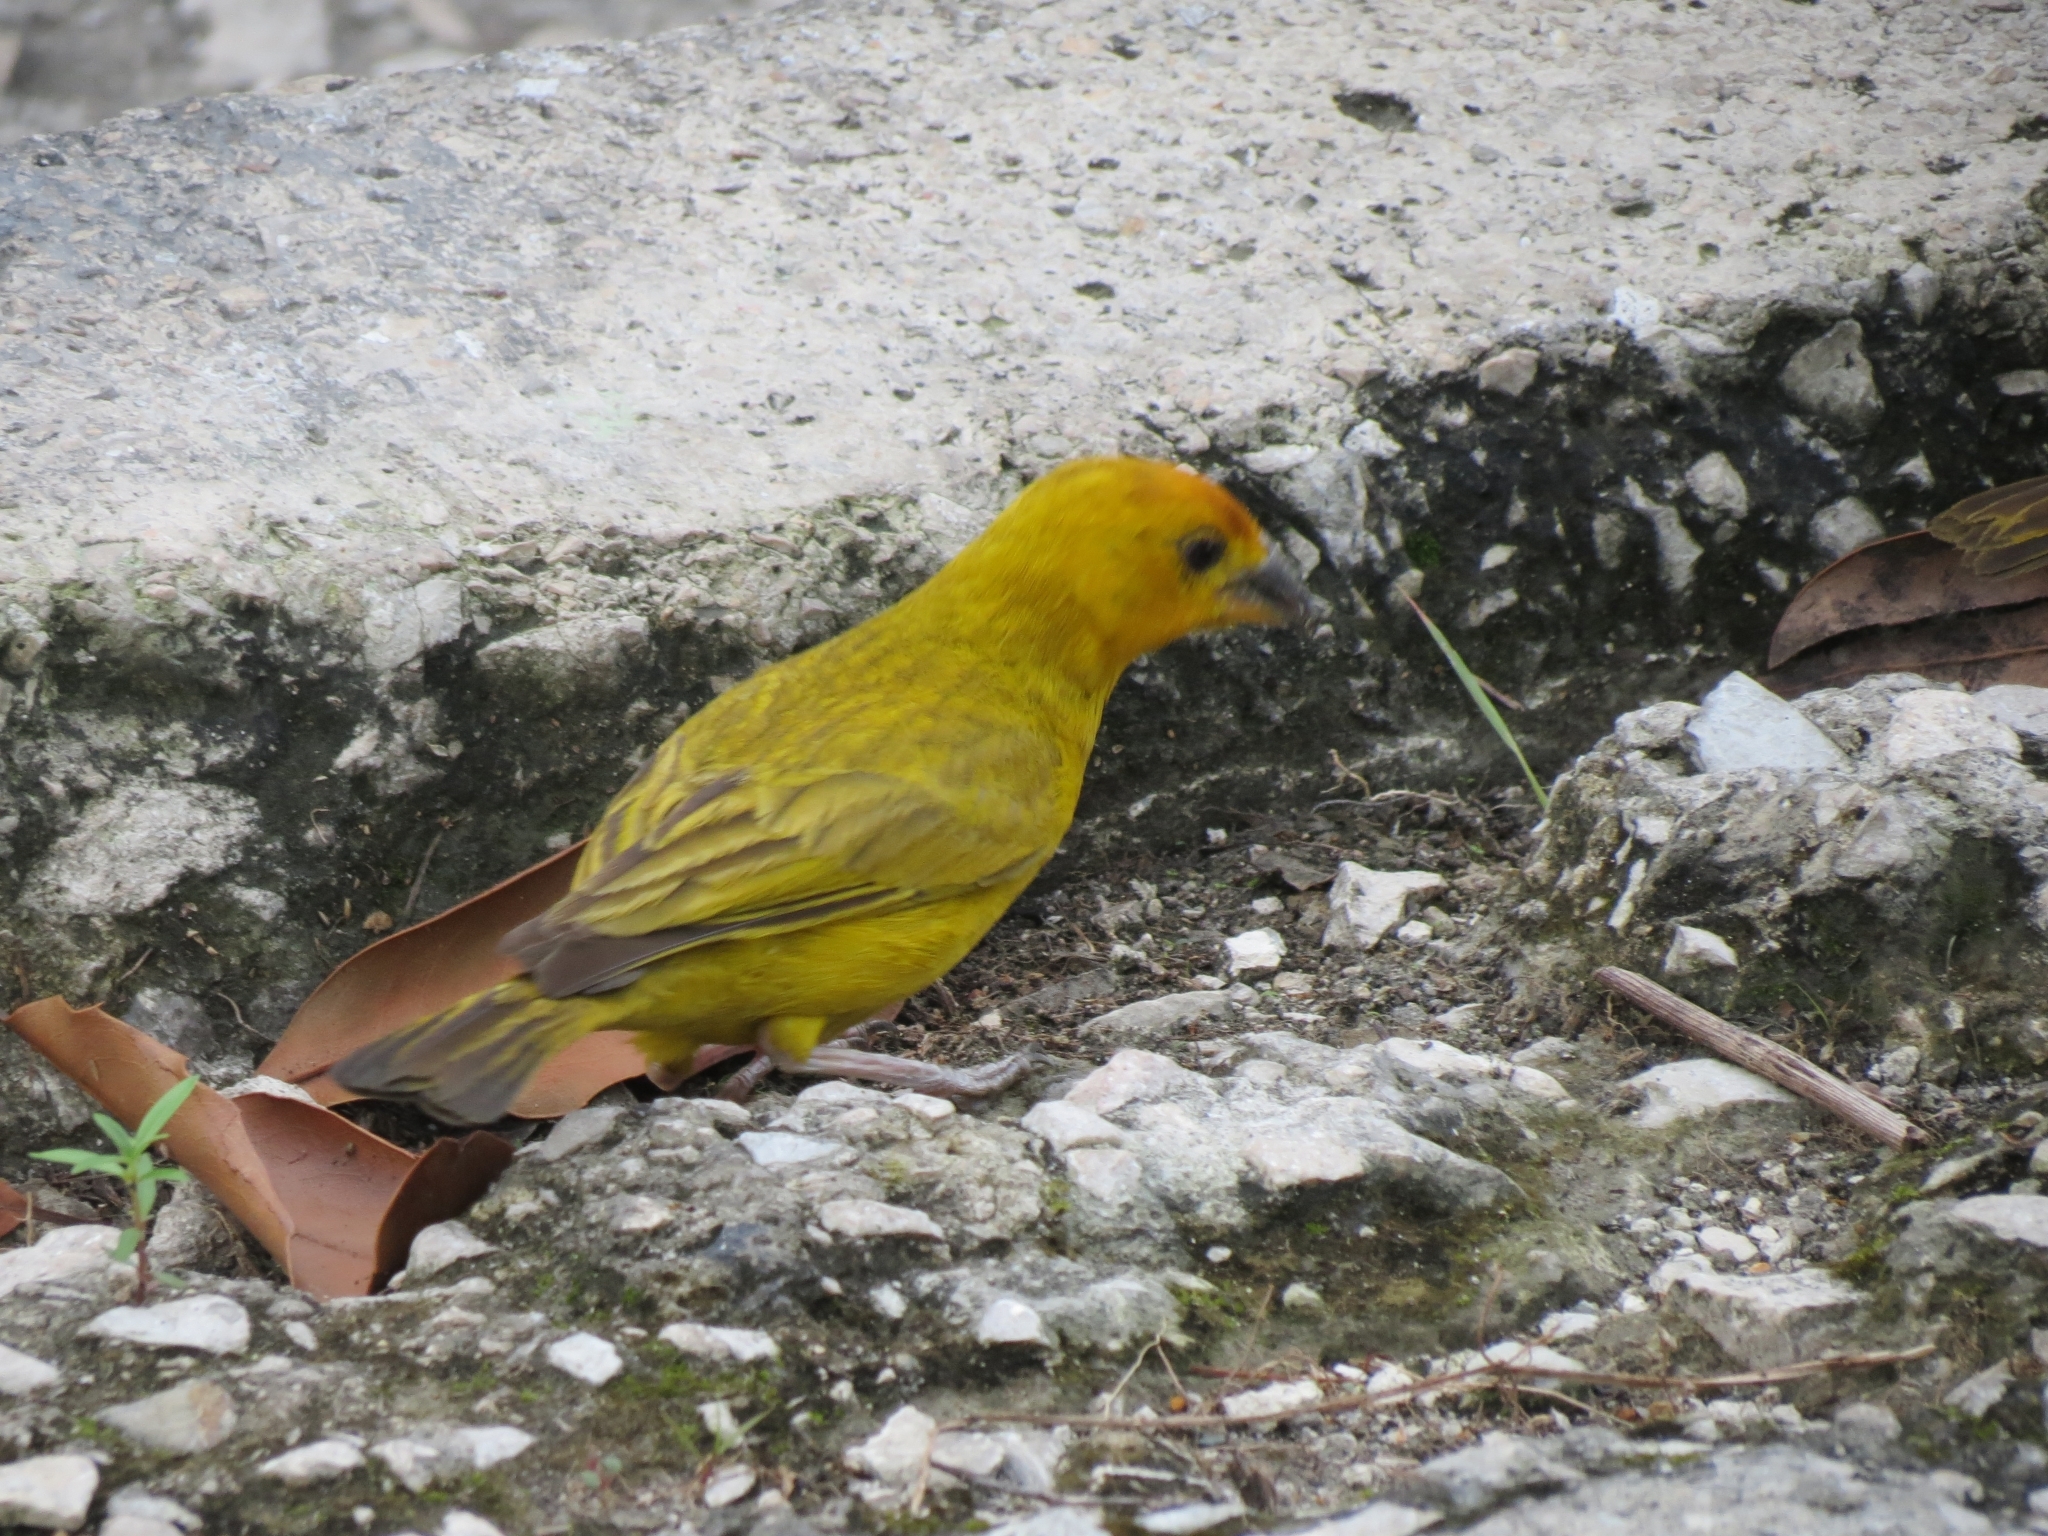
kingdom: Animalia
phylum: Chordata
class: Aves
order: Passeriformes
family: Thraupidae
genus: Sicalis
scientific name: Sicalis flaveola
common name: Saffron finch
